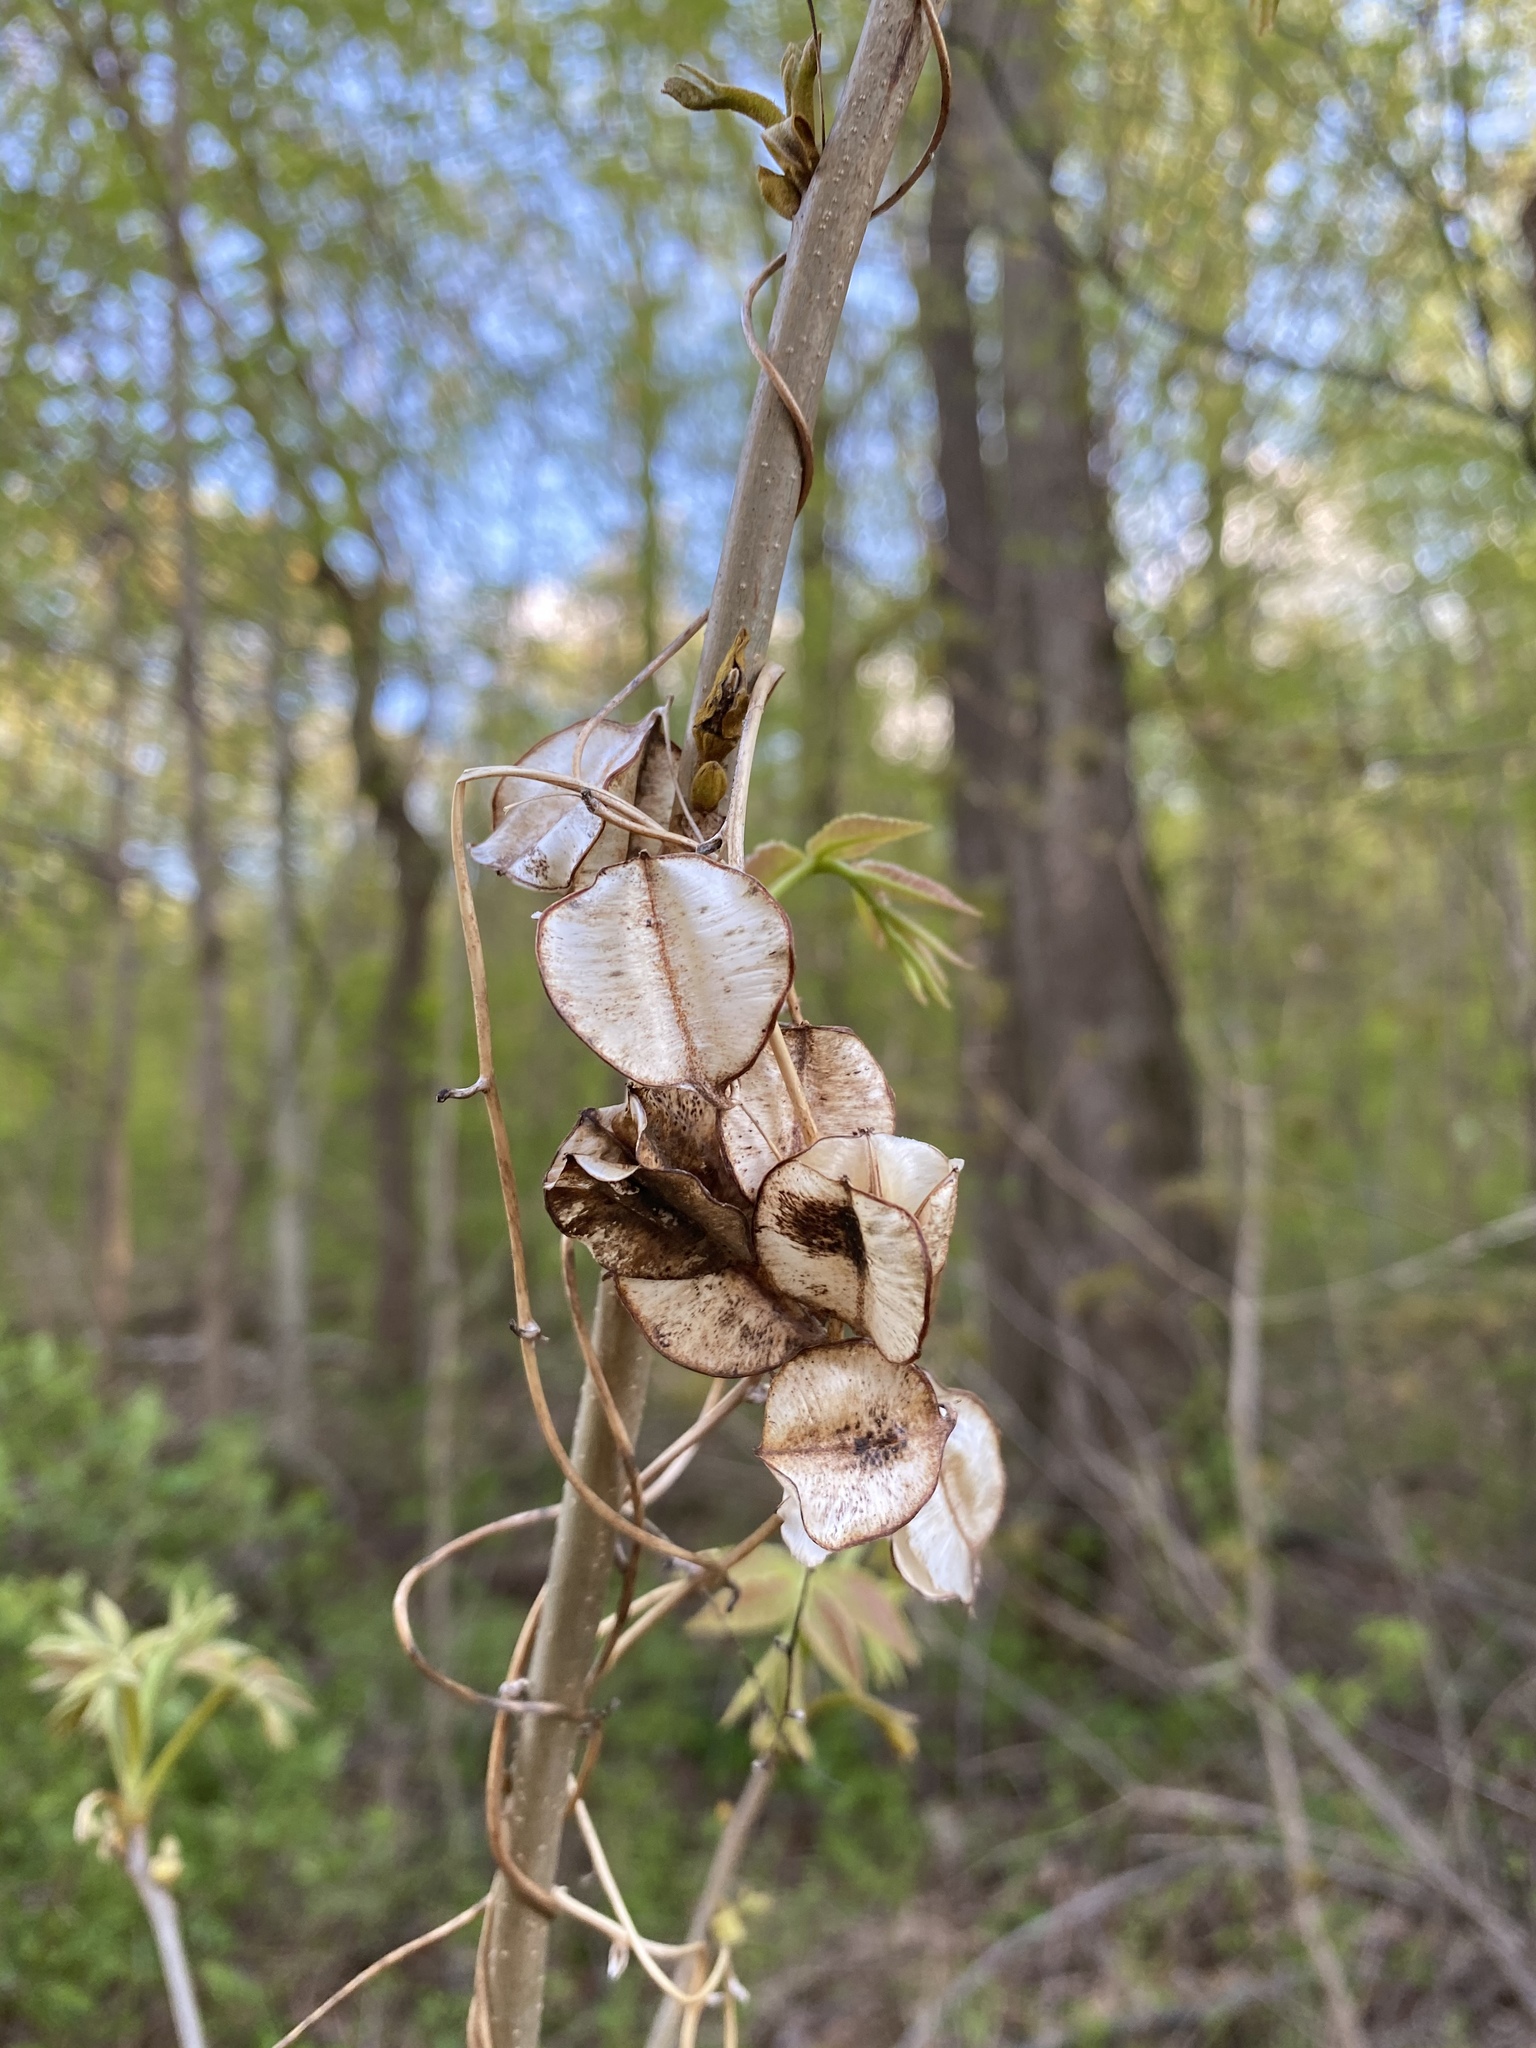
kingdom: Plantae
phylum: Tracheophyta
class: Liliopsida
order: Dioscoreales
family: Dioscoreaceae
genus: Dioscorea
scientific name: Dioscorea villosa
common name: Wild yam
